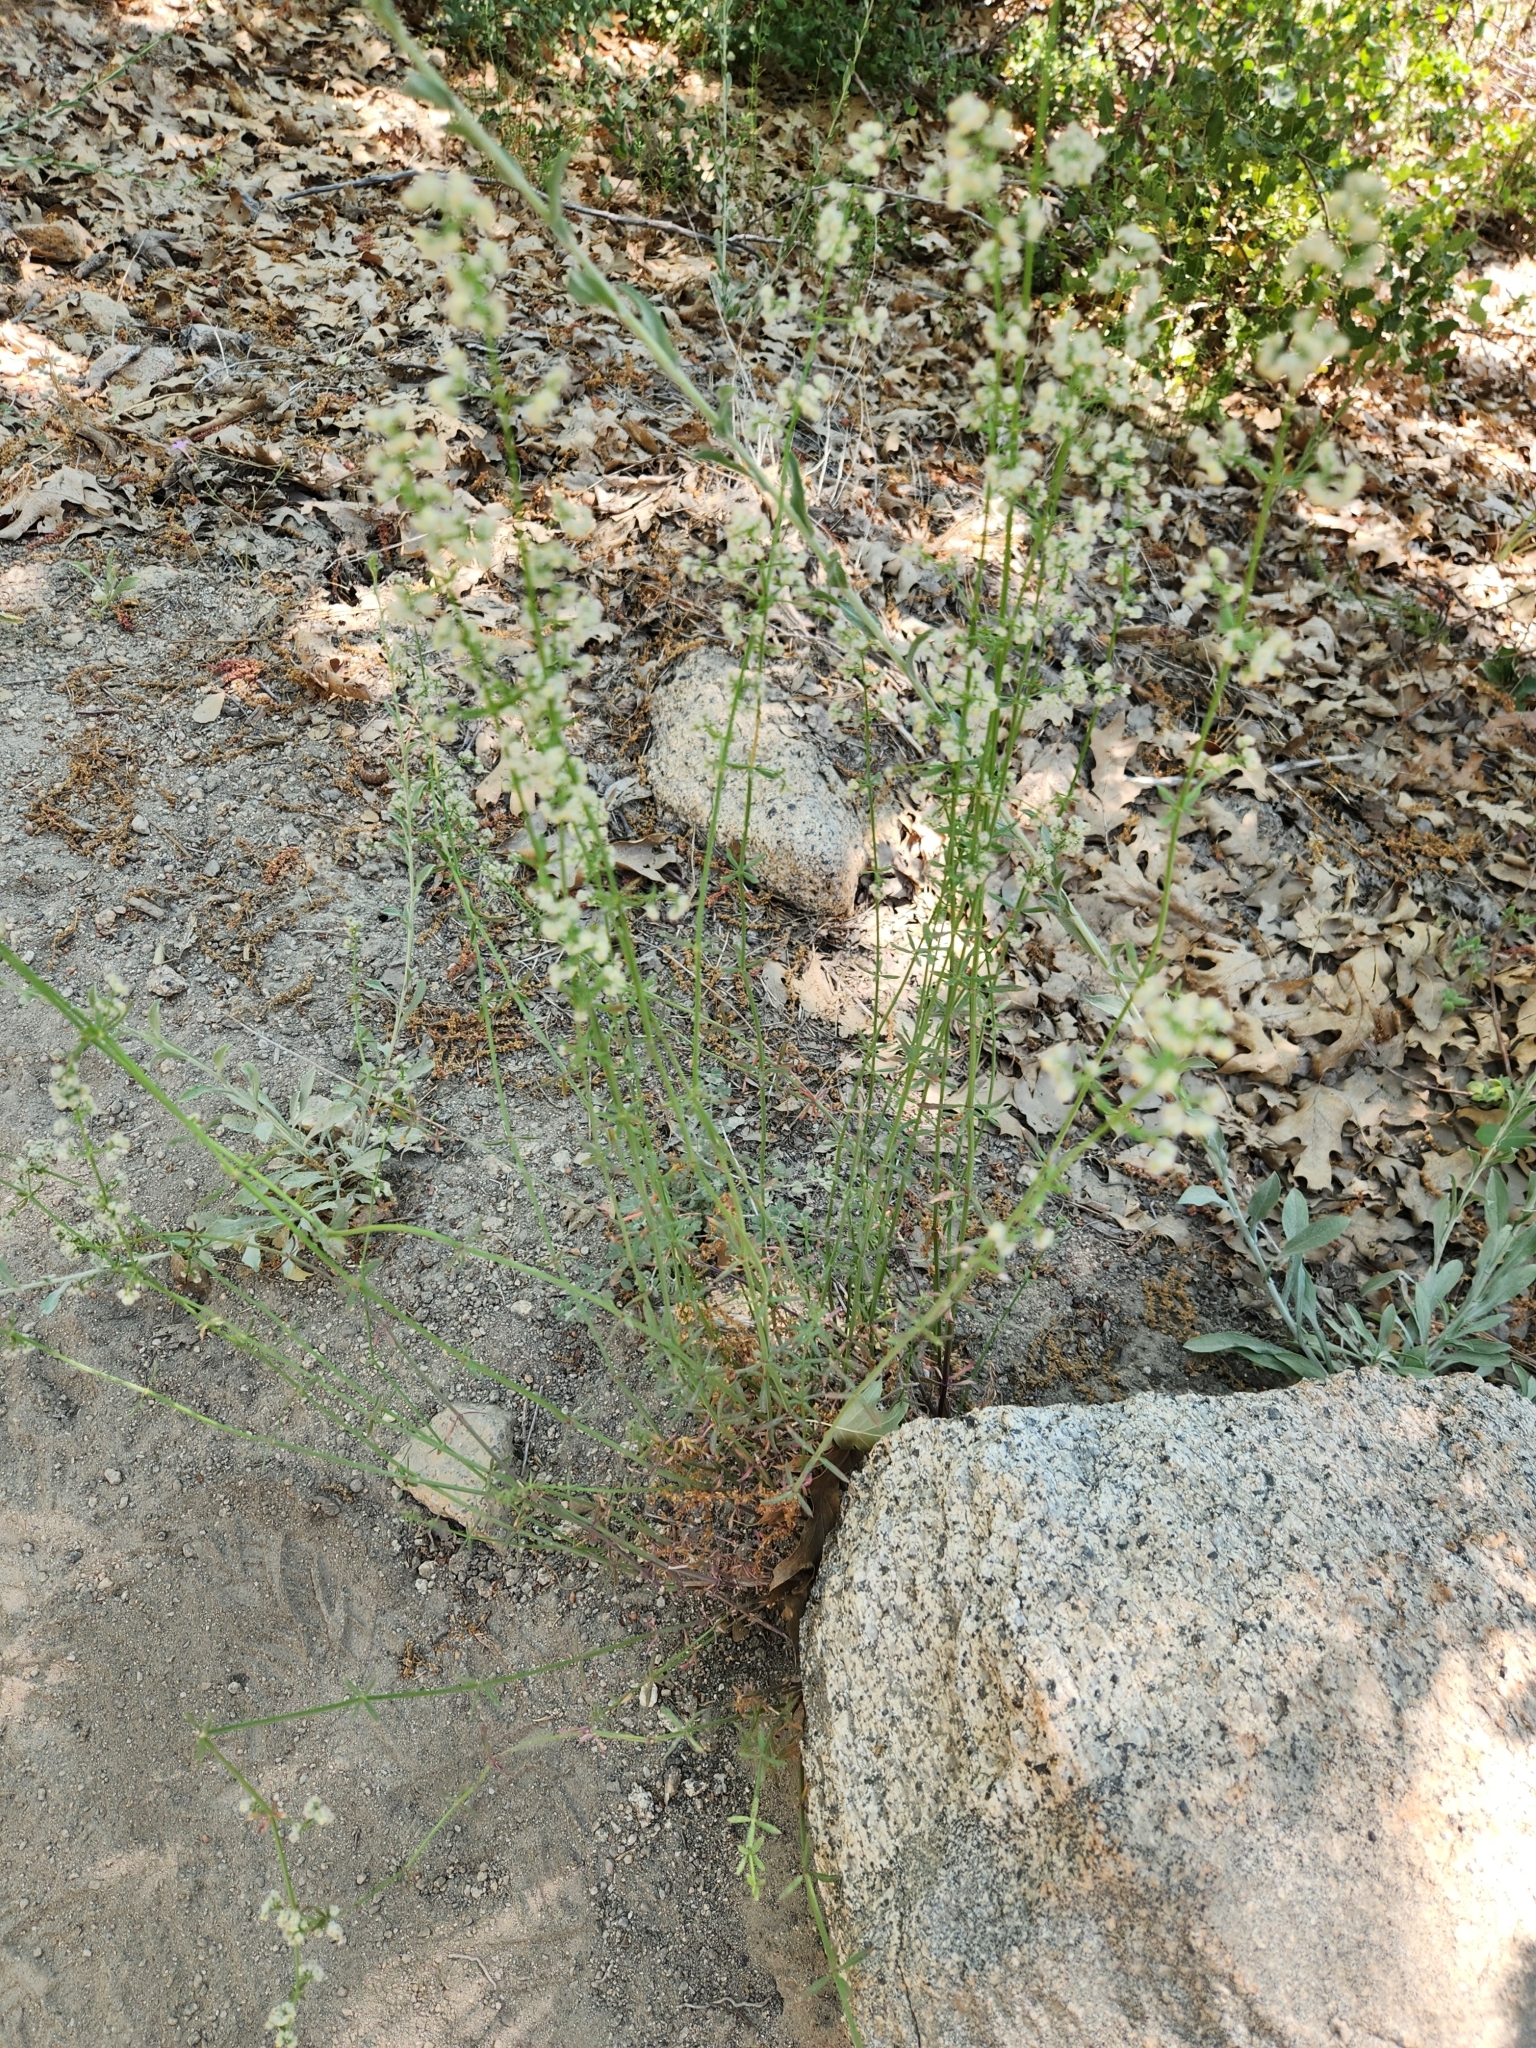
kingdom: Plantae
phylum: Tracheophyta
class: Magnoliopsida
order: Gentianales
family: Rubiaceae
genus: Galium
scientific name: Galium angustifolium
